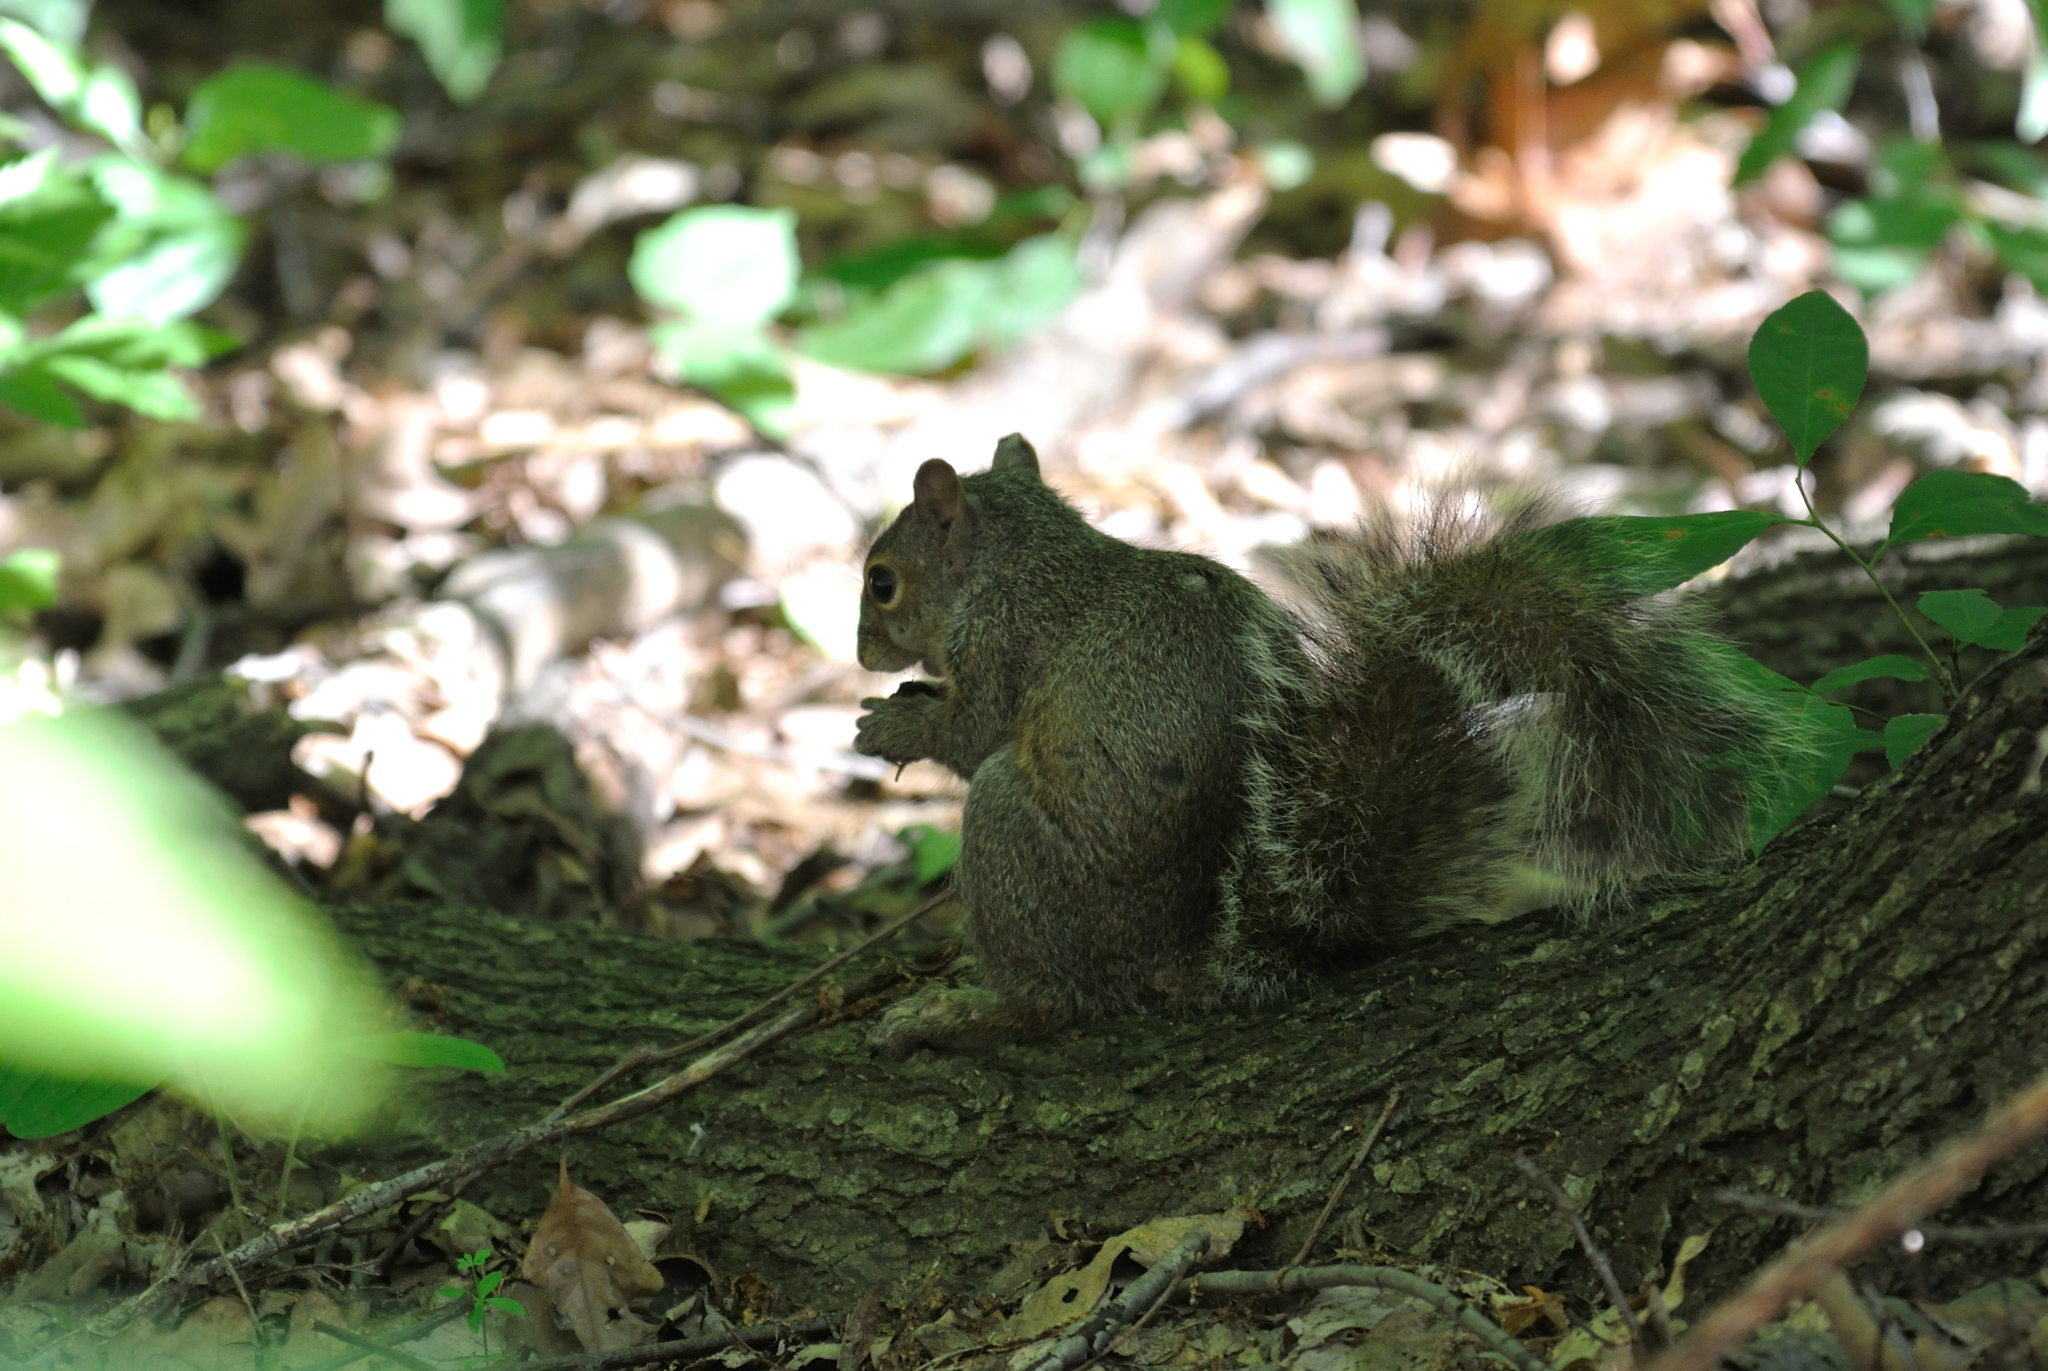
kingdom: Animalia
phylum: Chordata
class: Mammalia
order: Rodentia
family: Sciuridae
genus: Sciurus
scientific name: Sciurus carolinensis
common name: Eastern gray squirrel
